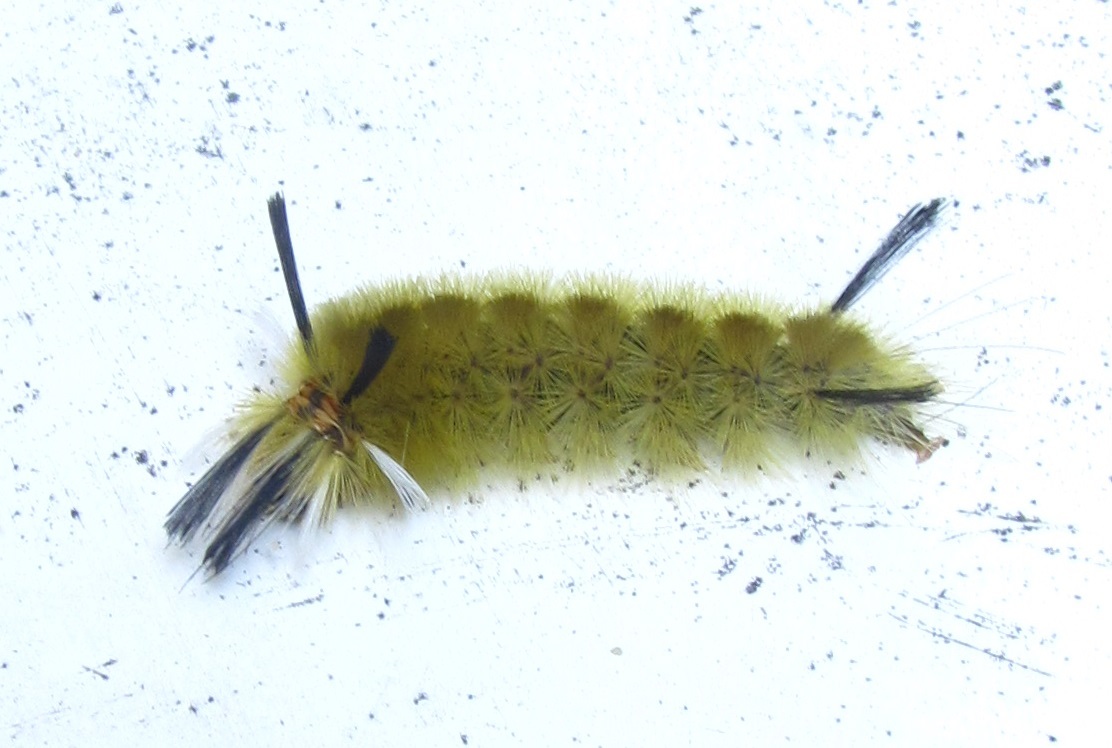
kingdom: Animalia
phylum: Arthropoda
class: Insecta
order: Lepidoptera
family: Erebidae
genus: Halysidota
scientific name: Halysidota tessellaris
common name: Banded tussock moth
